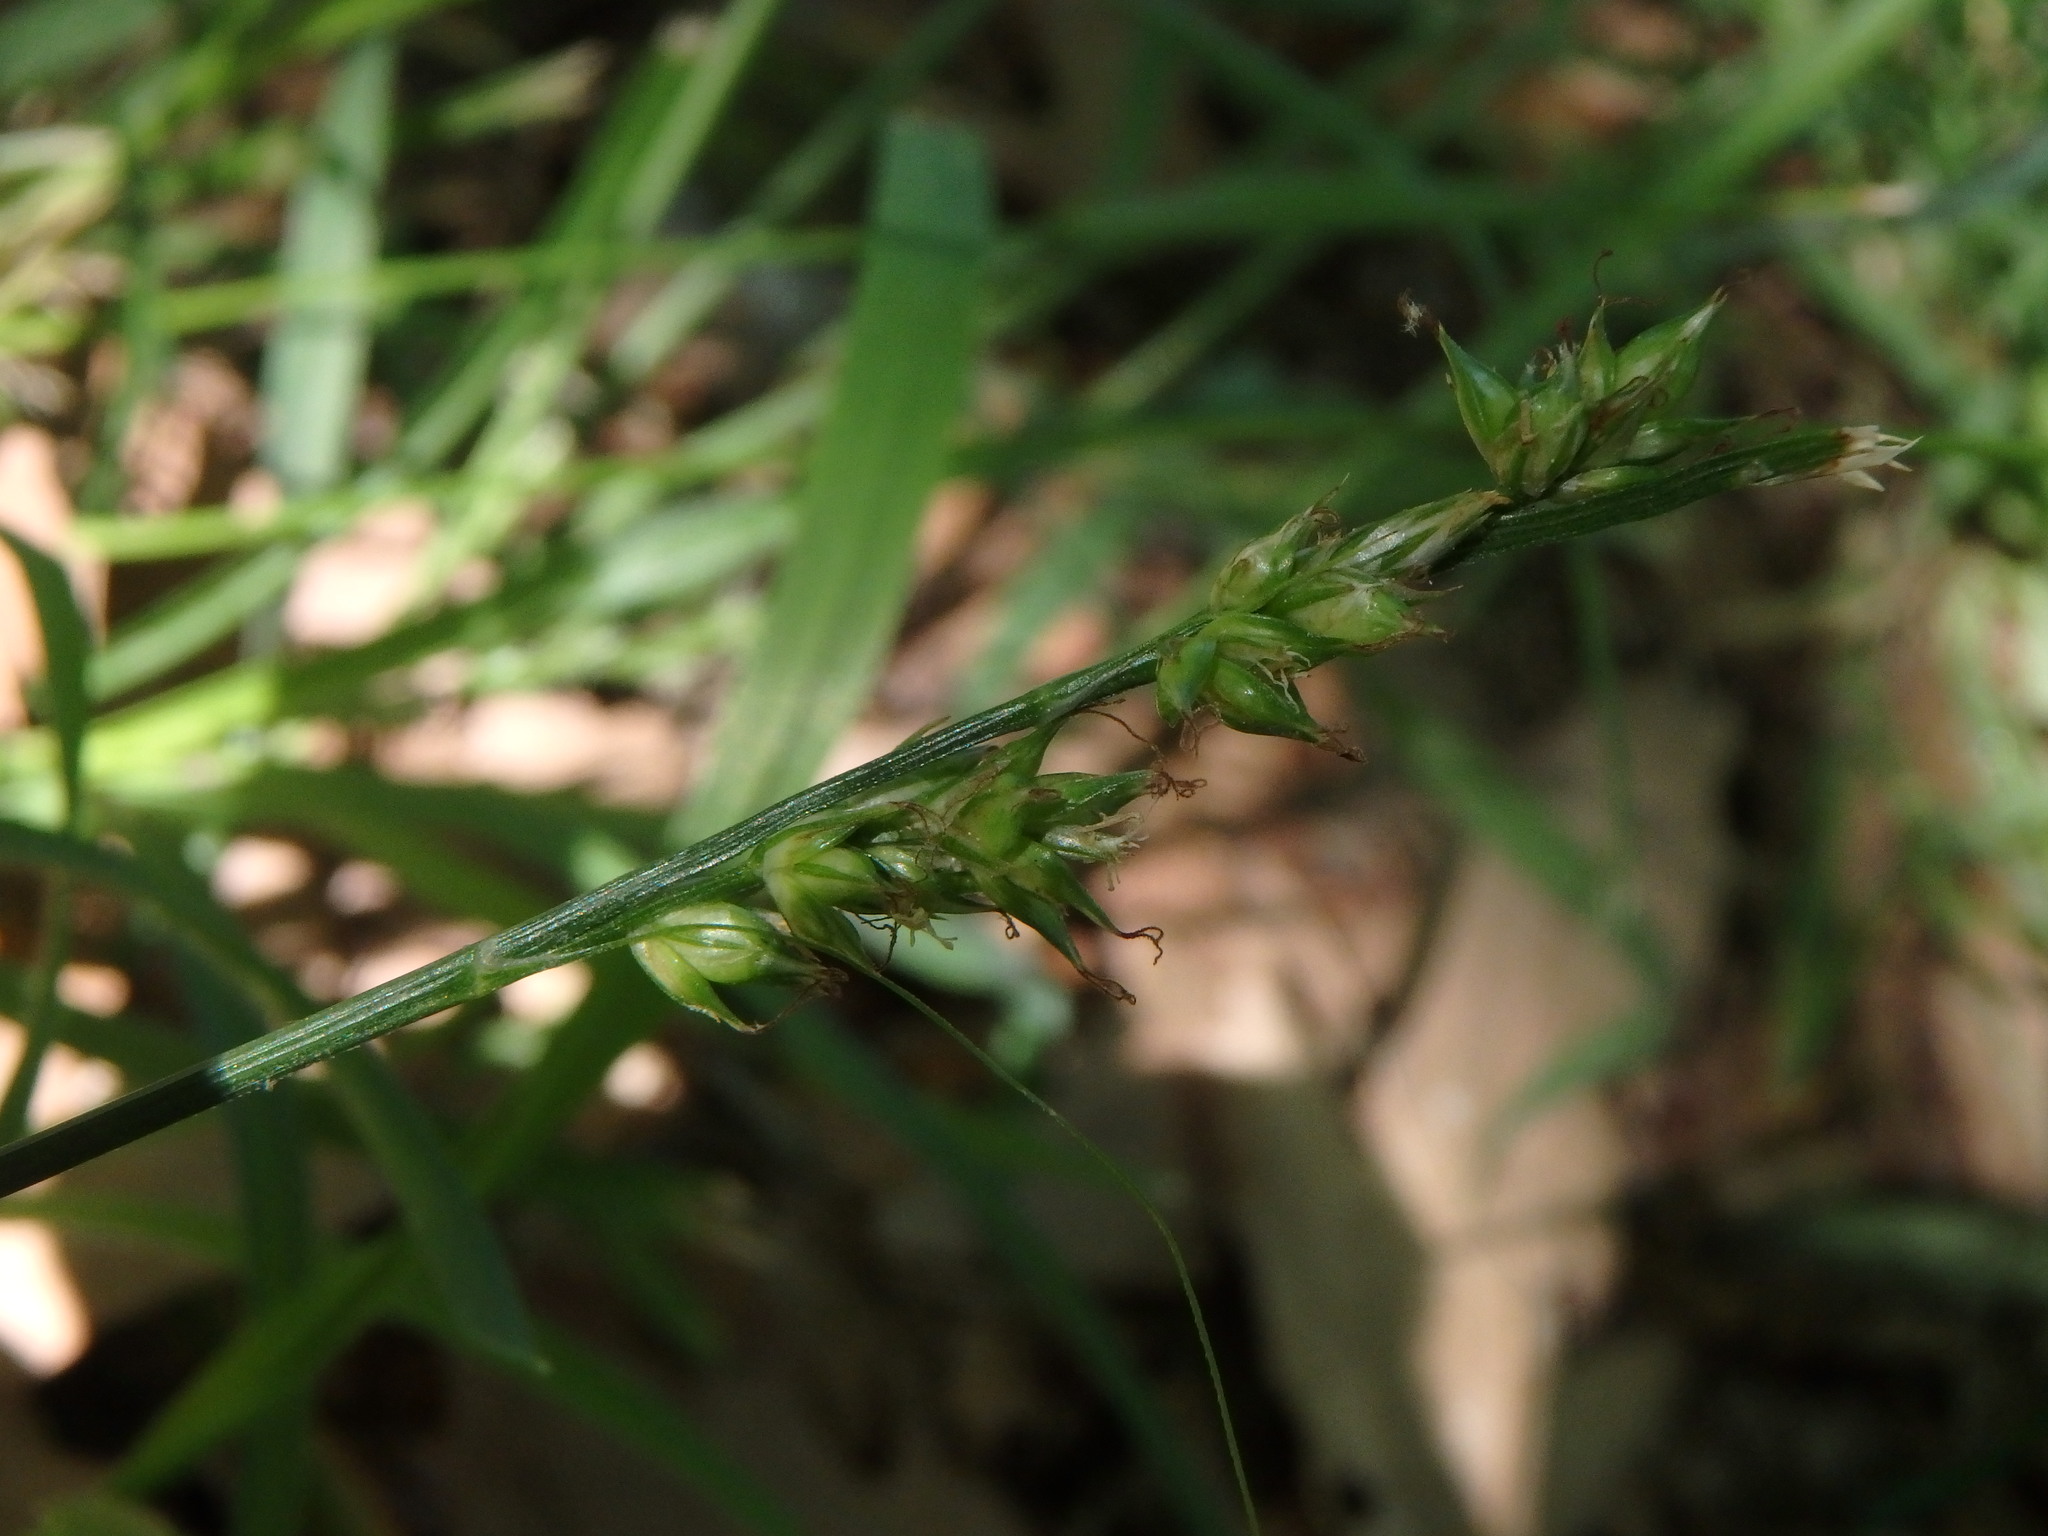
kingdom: Plantae
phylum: Tracheophyta
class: Liliopsida
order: Poales
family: Cyperaceae
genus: Carex
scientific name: Carex divulsa
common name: Grassland sedge
